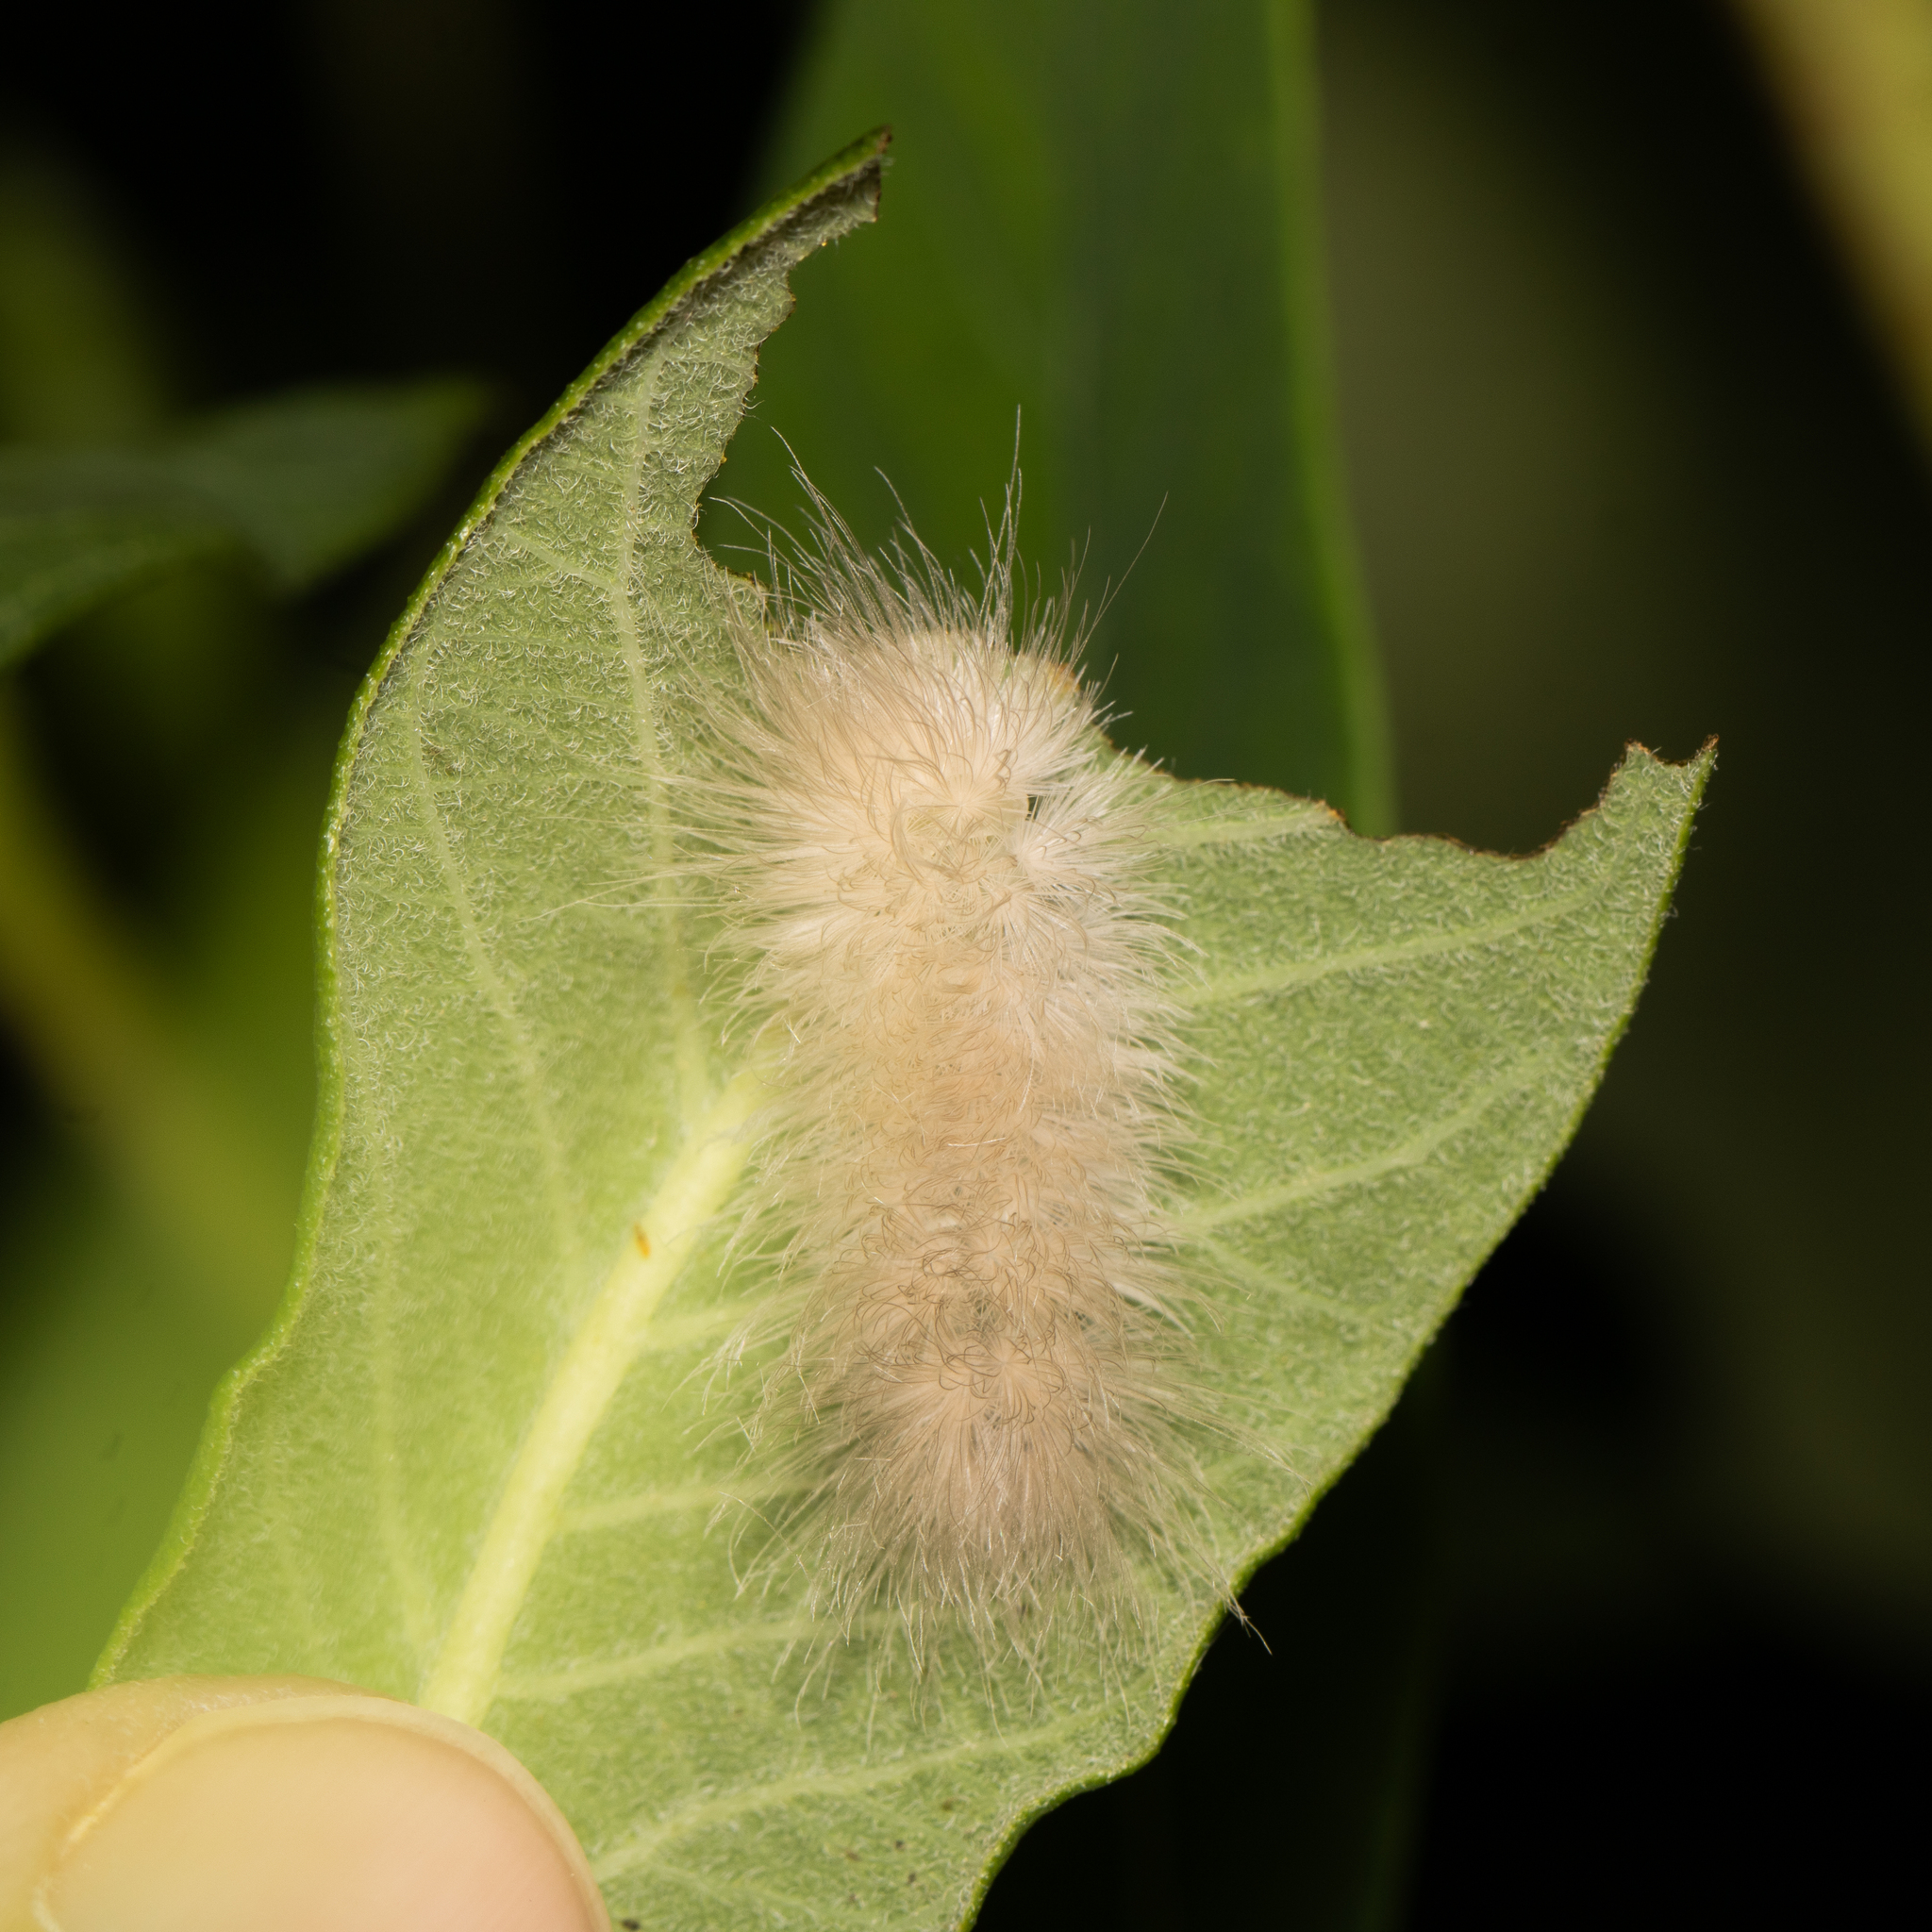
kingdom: Animalia
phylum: Arthropoda
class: Insecta
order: Lepidoptera
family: Erebidae
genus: Cycnia
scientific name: Cycnia tenera
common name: Delicate cycnia moth
